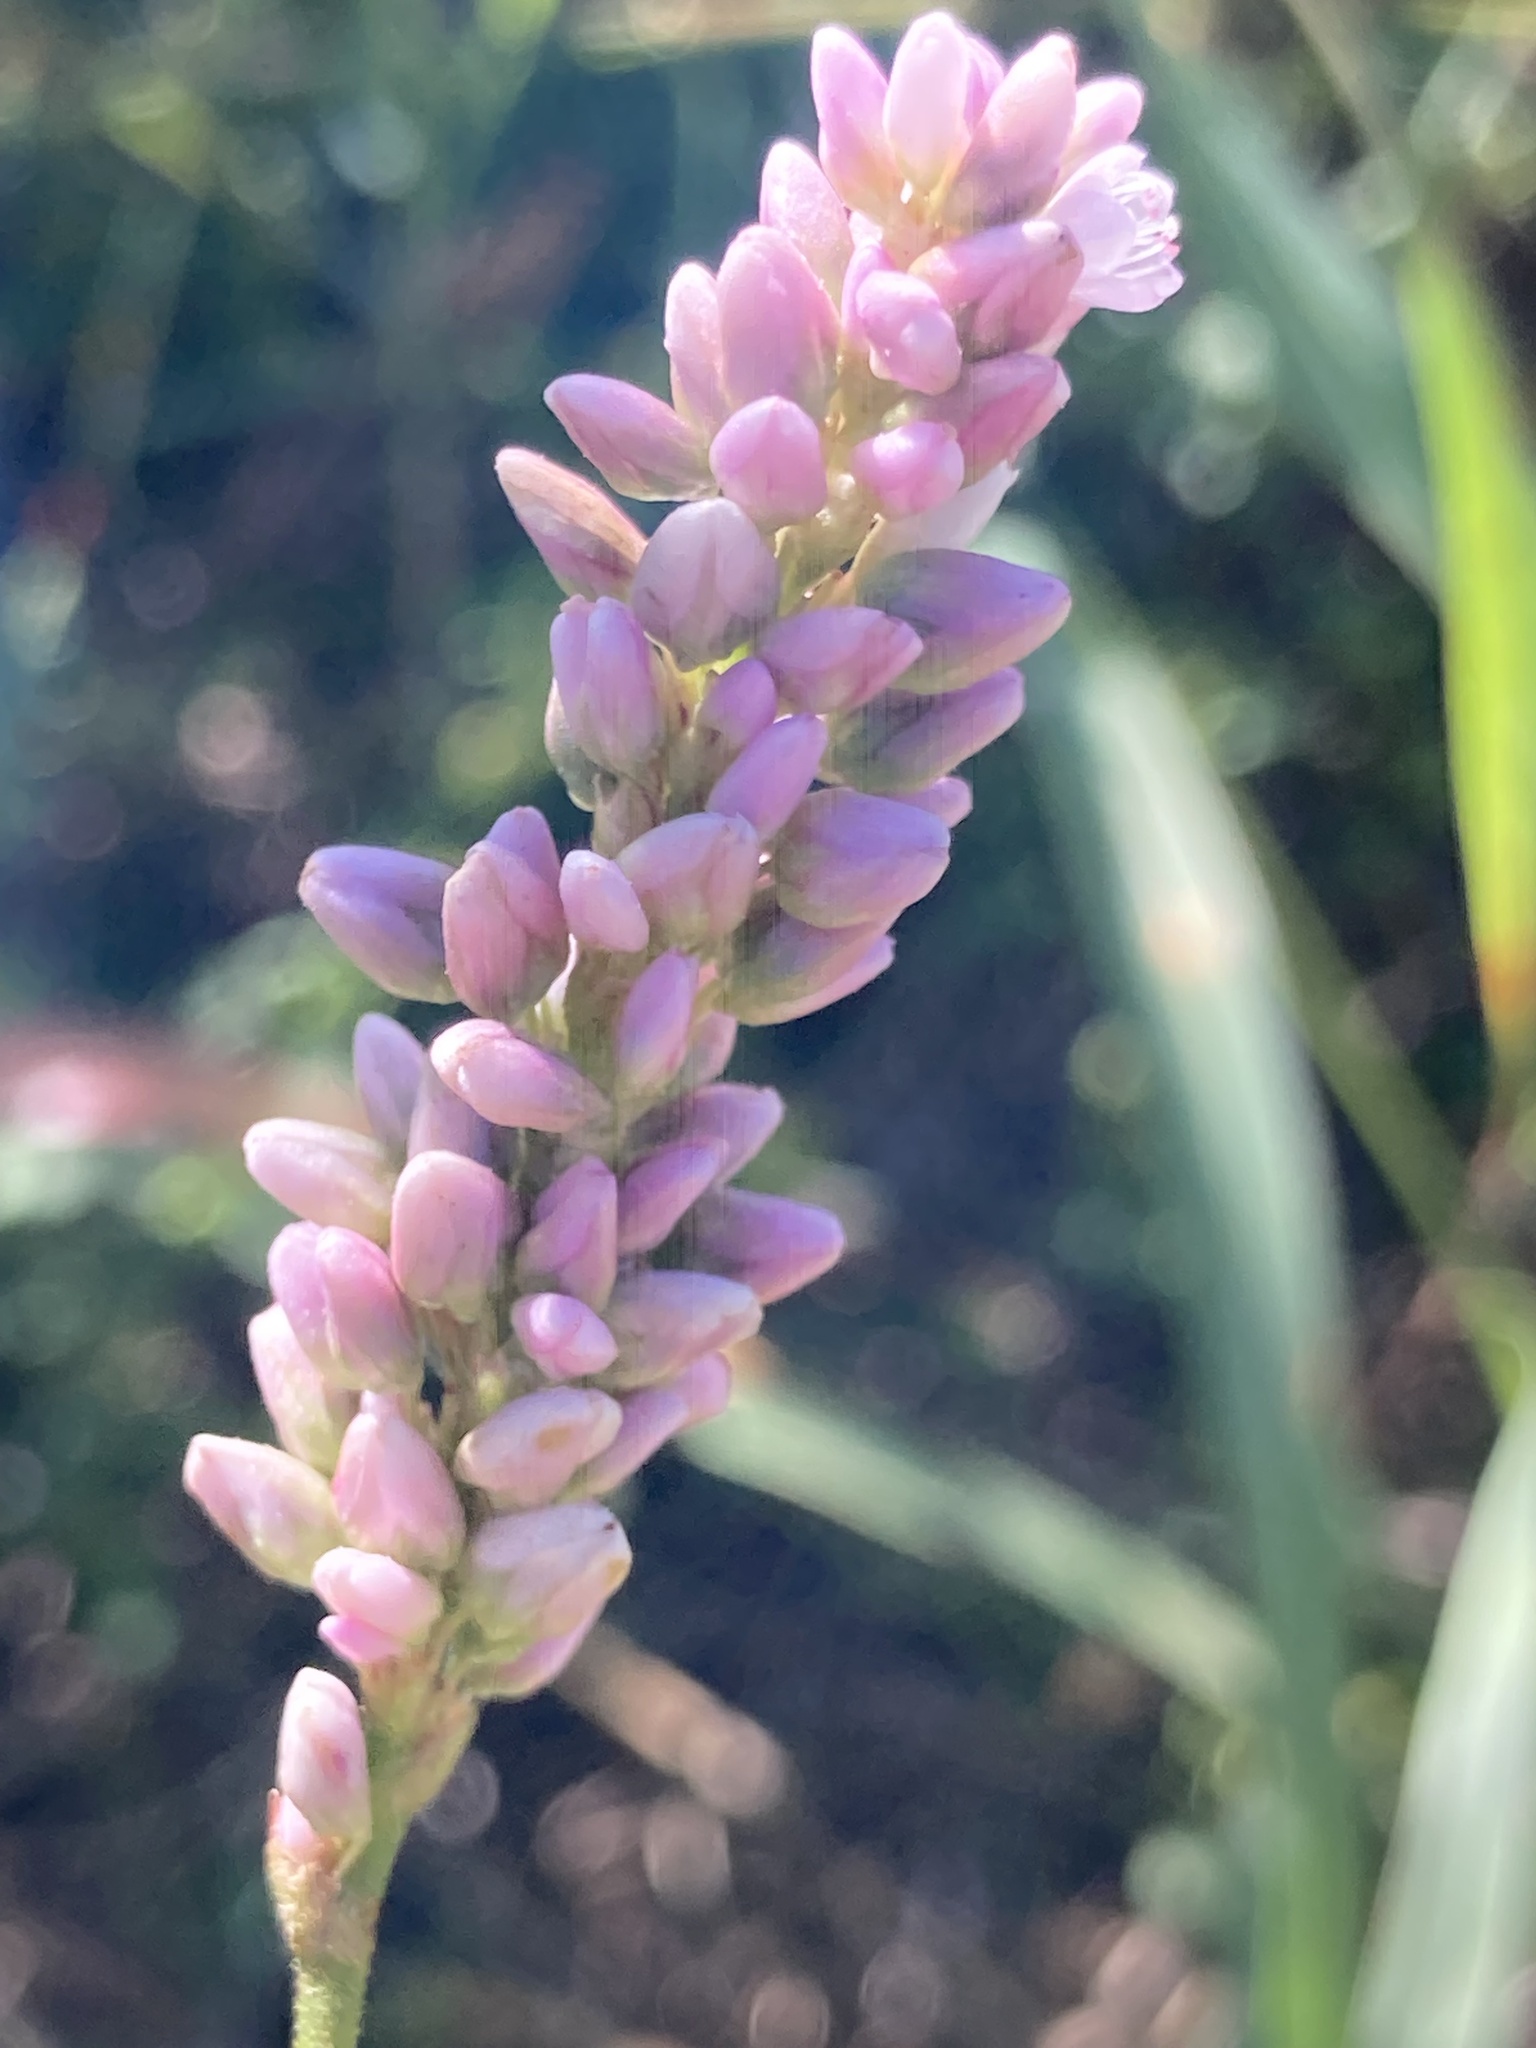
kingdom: Plantae
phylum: Tracheophyta
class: Magnoliopsida
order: Caryophyllales
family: Polygonaceae
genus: Persicaria
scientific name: Persicaria pensylvanica
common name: Pinkweed
